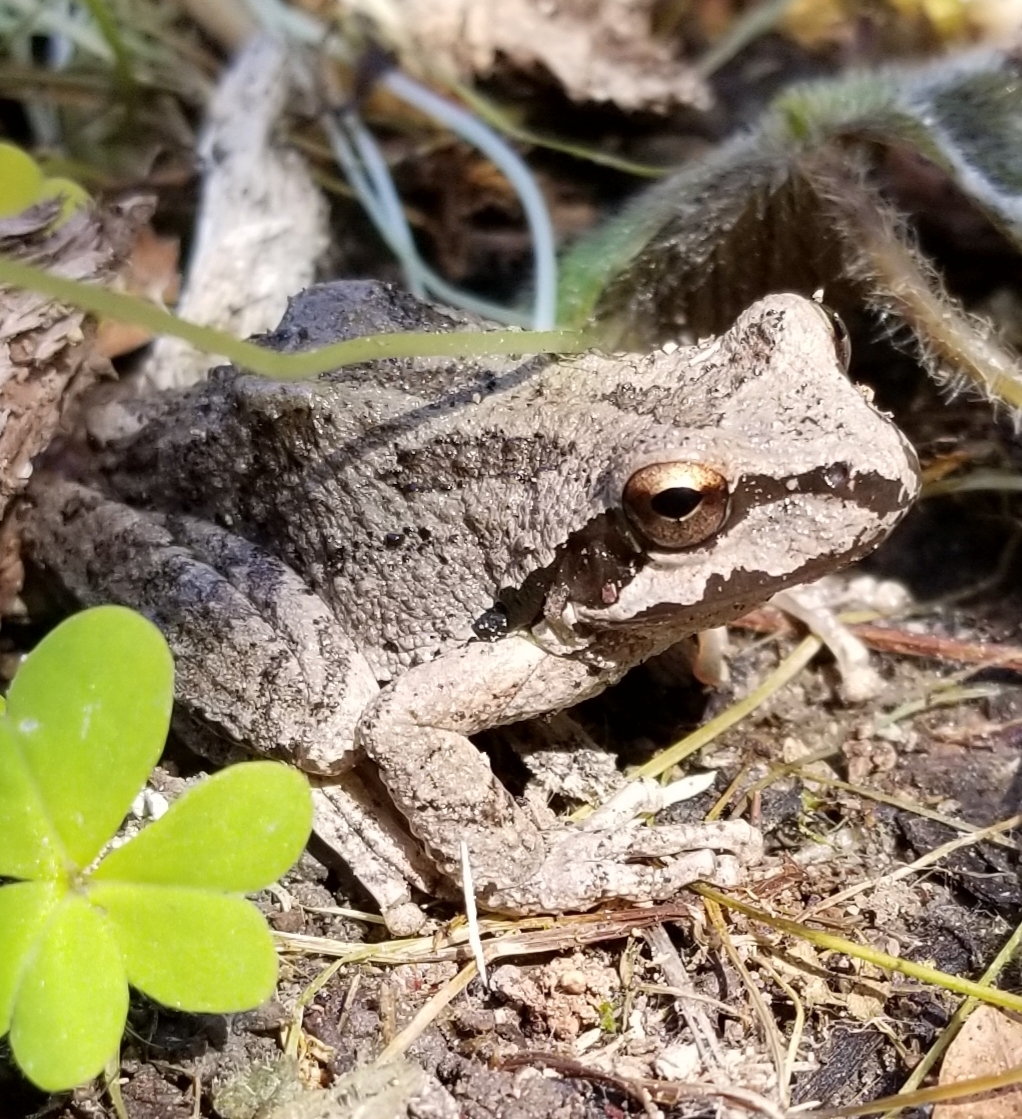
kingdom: Animalia
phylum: Chordata
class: Amphibia
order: Anura
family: Hylidae
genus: Pseudacris
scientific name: Pseudacris regilla
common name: Pacific chorus frog
